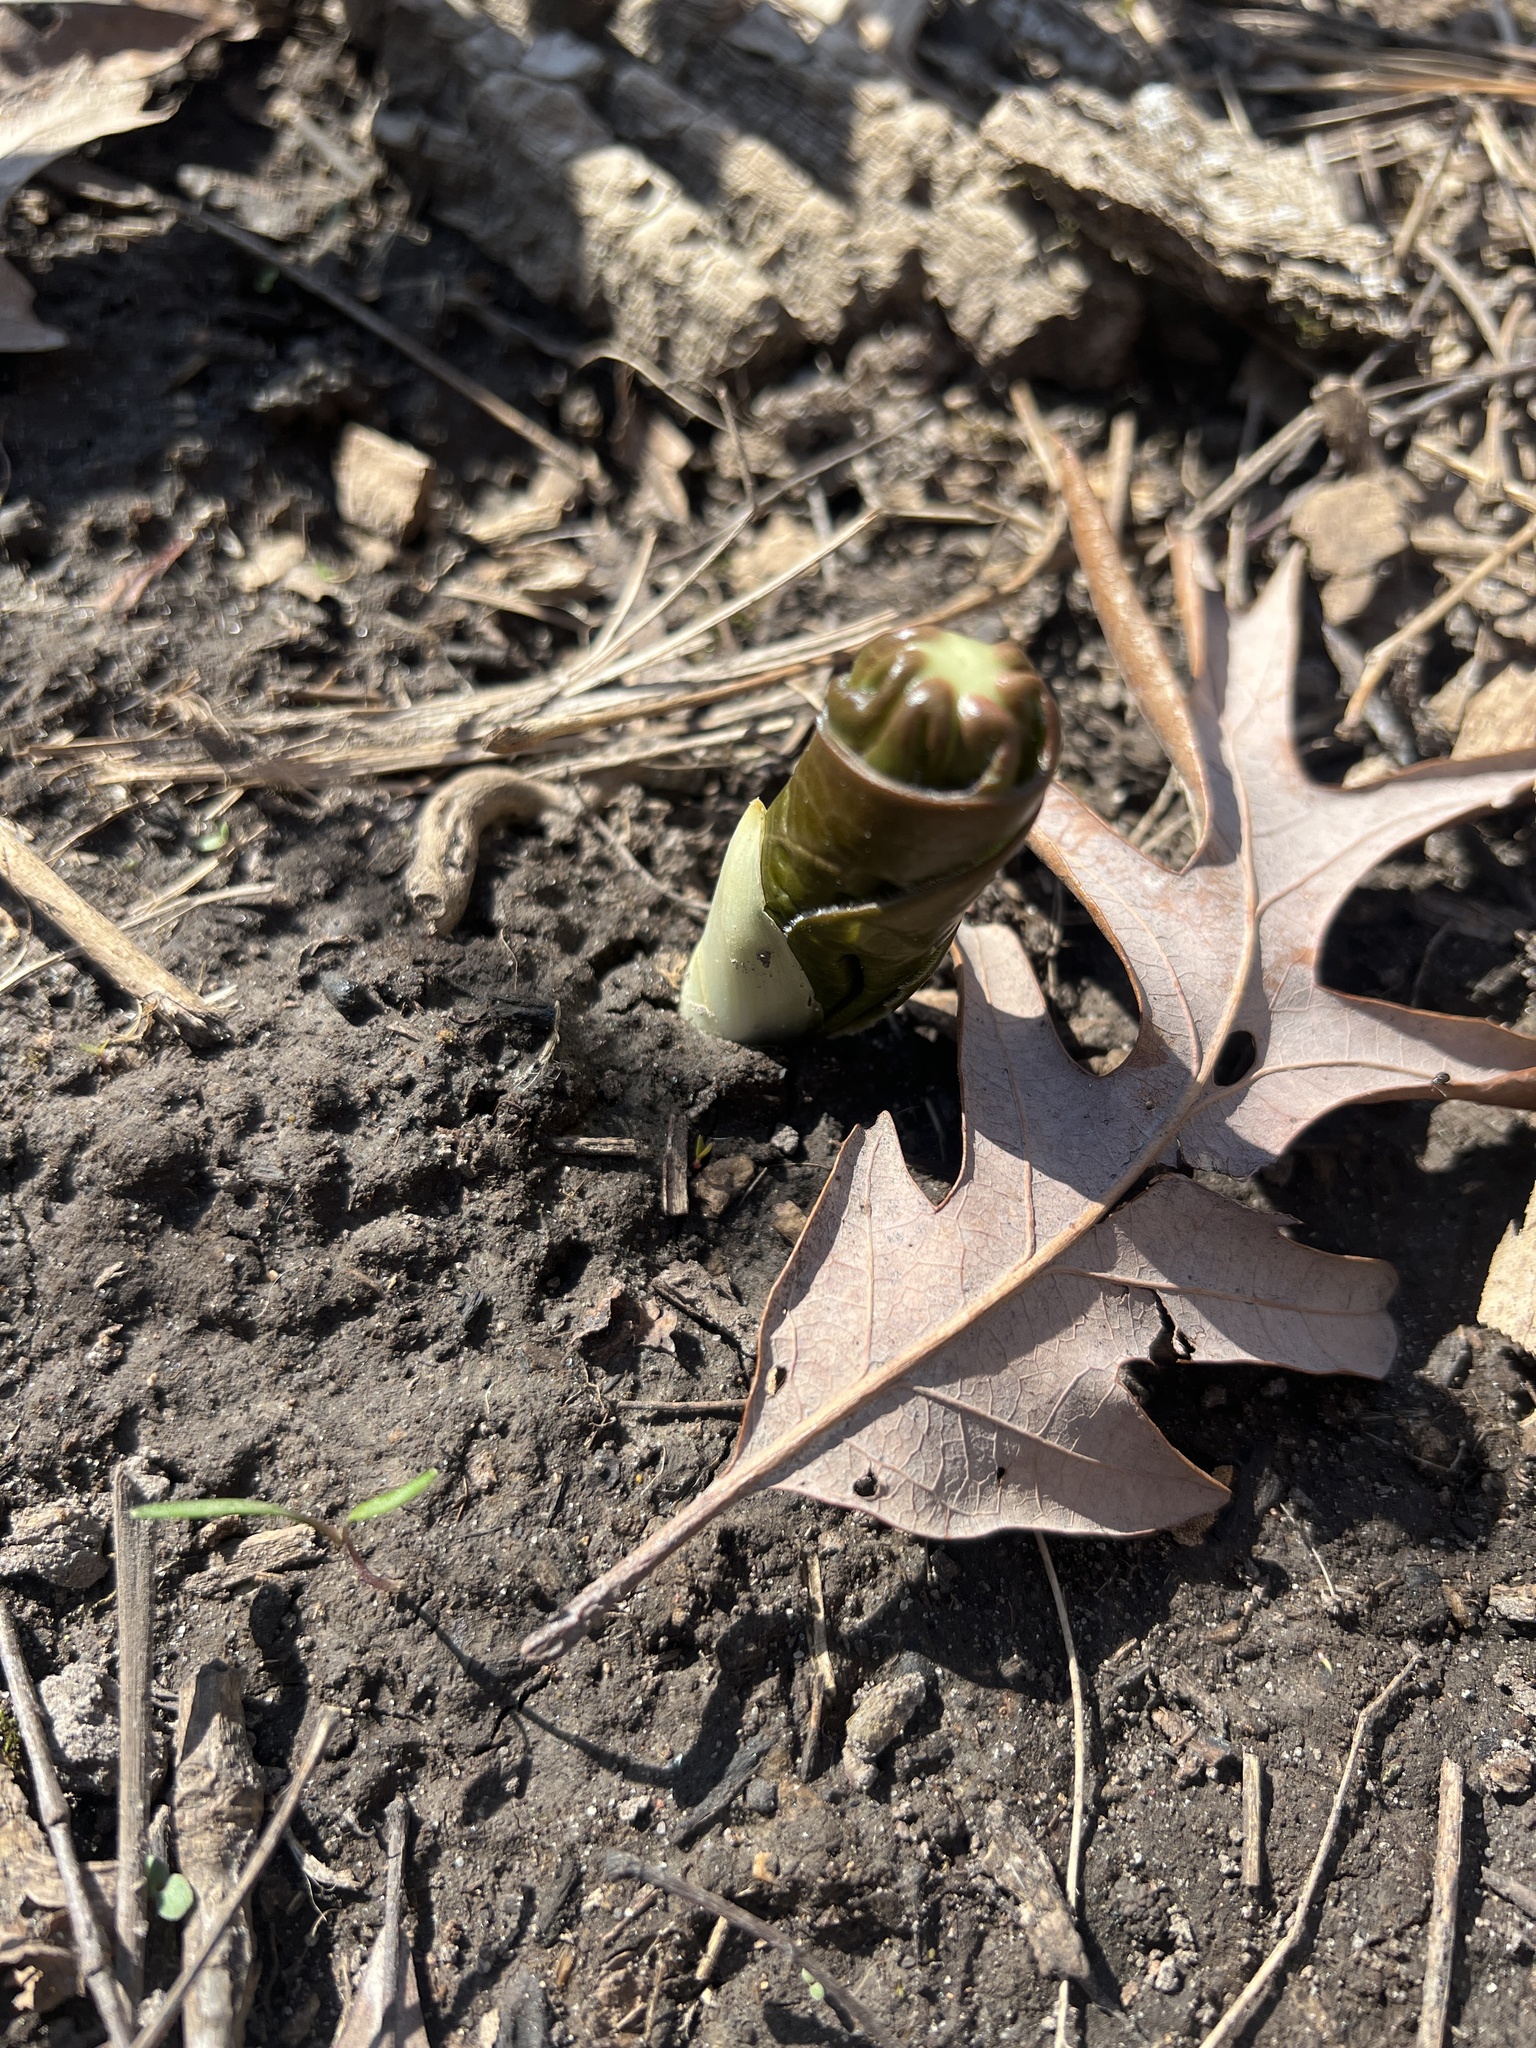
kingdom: Plantae
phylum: Tracheophyta
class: Magnoliopsida
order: Ranunculales
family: Berberidaceae
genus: Podophyllum
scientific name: Podophyllum peltatum
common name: Wild mandrake
